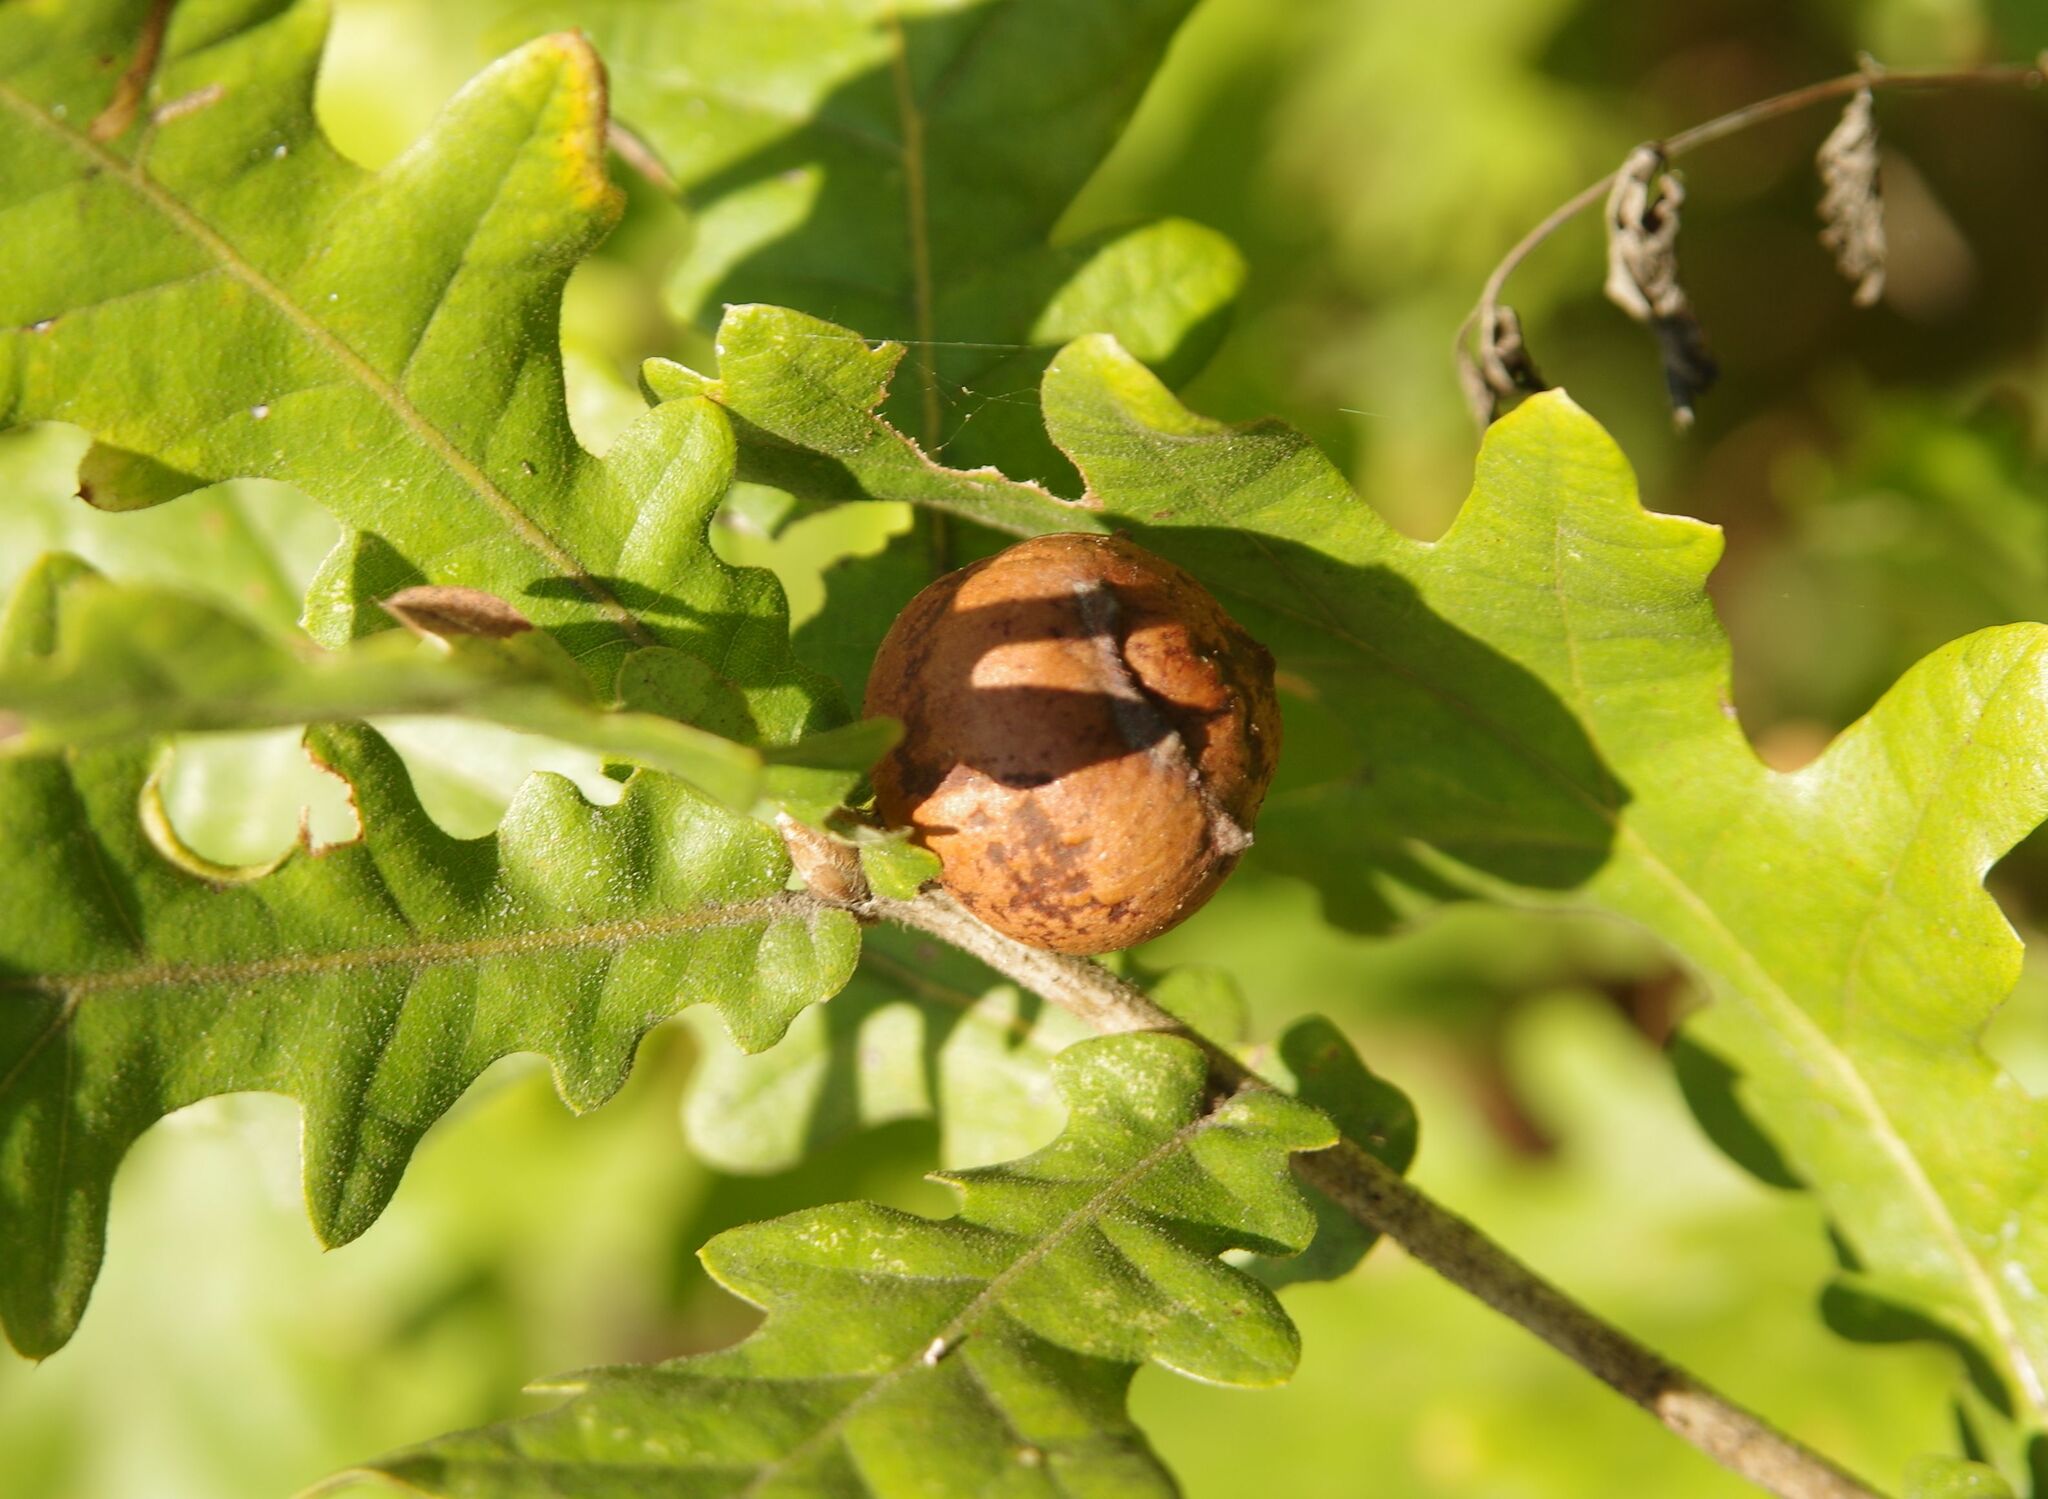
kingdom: Animalia
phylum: Arthropoda
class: Insecta
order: Hymenoptera
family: Cynipidae
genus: Andricus
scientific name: Andricus quercustozae
